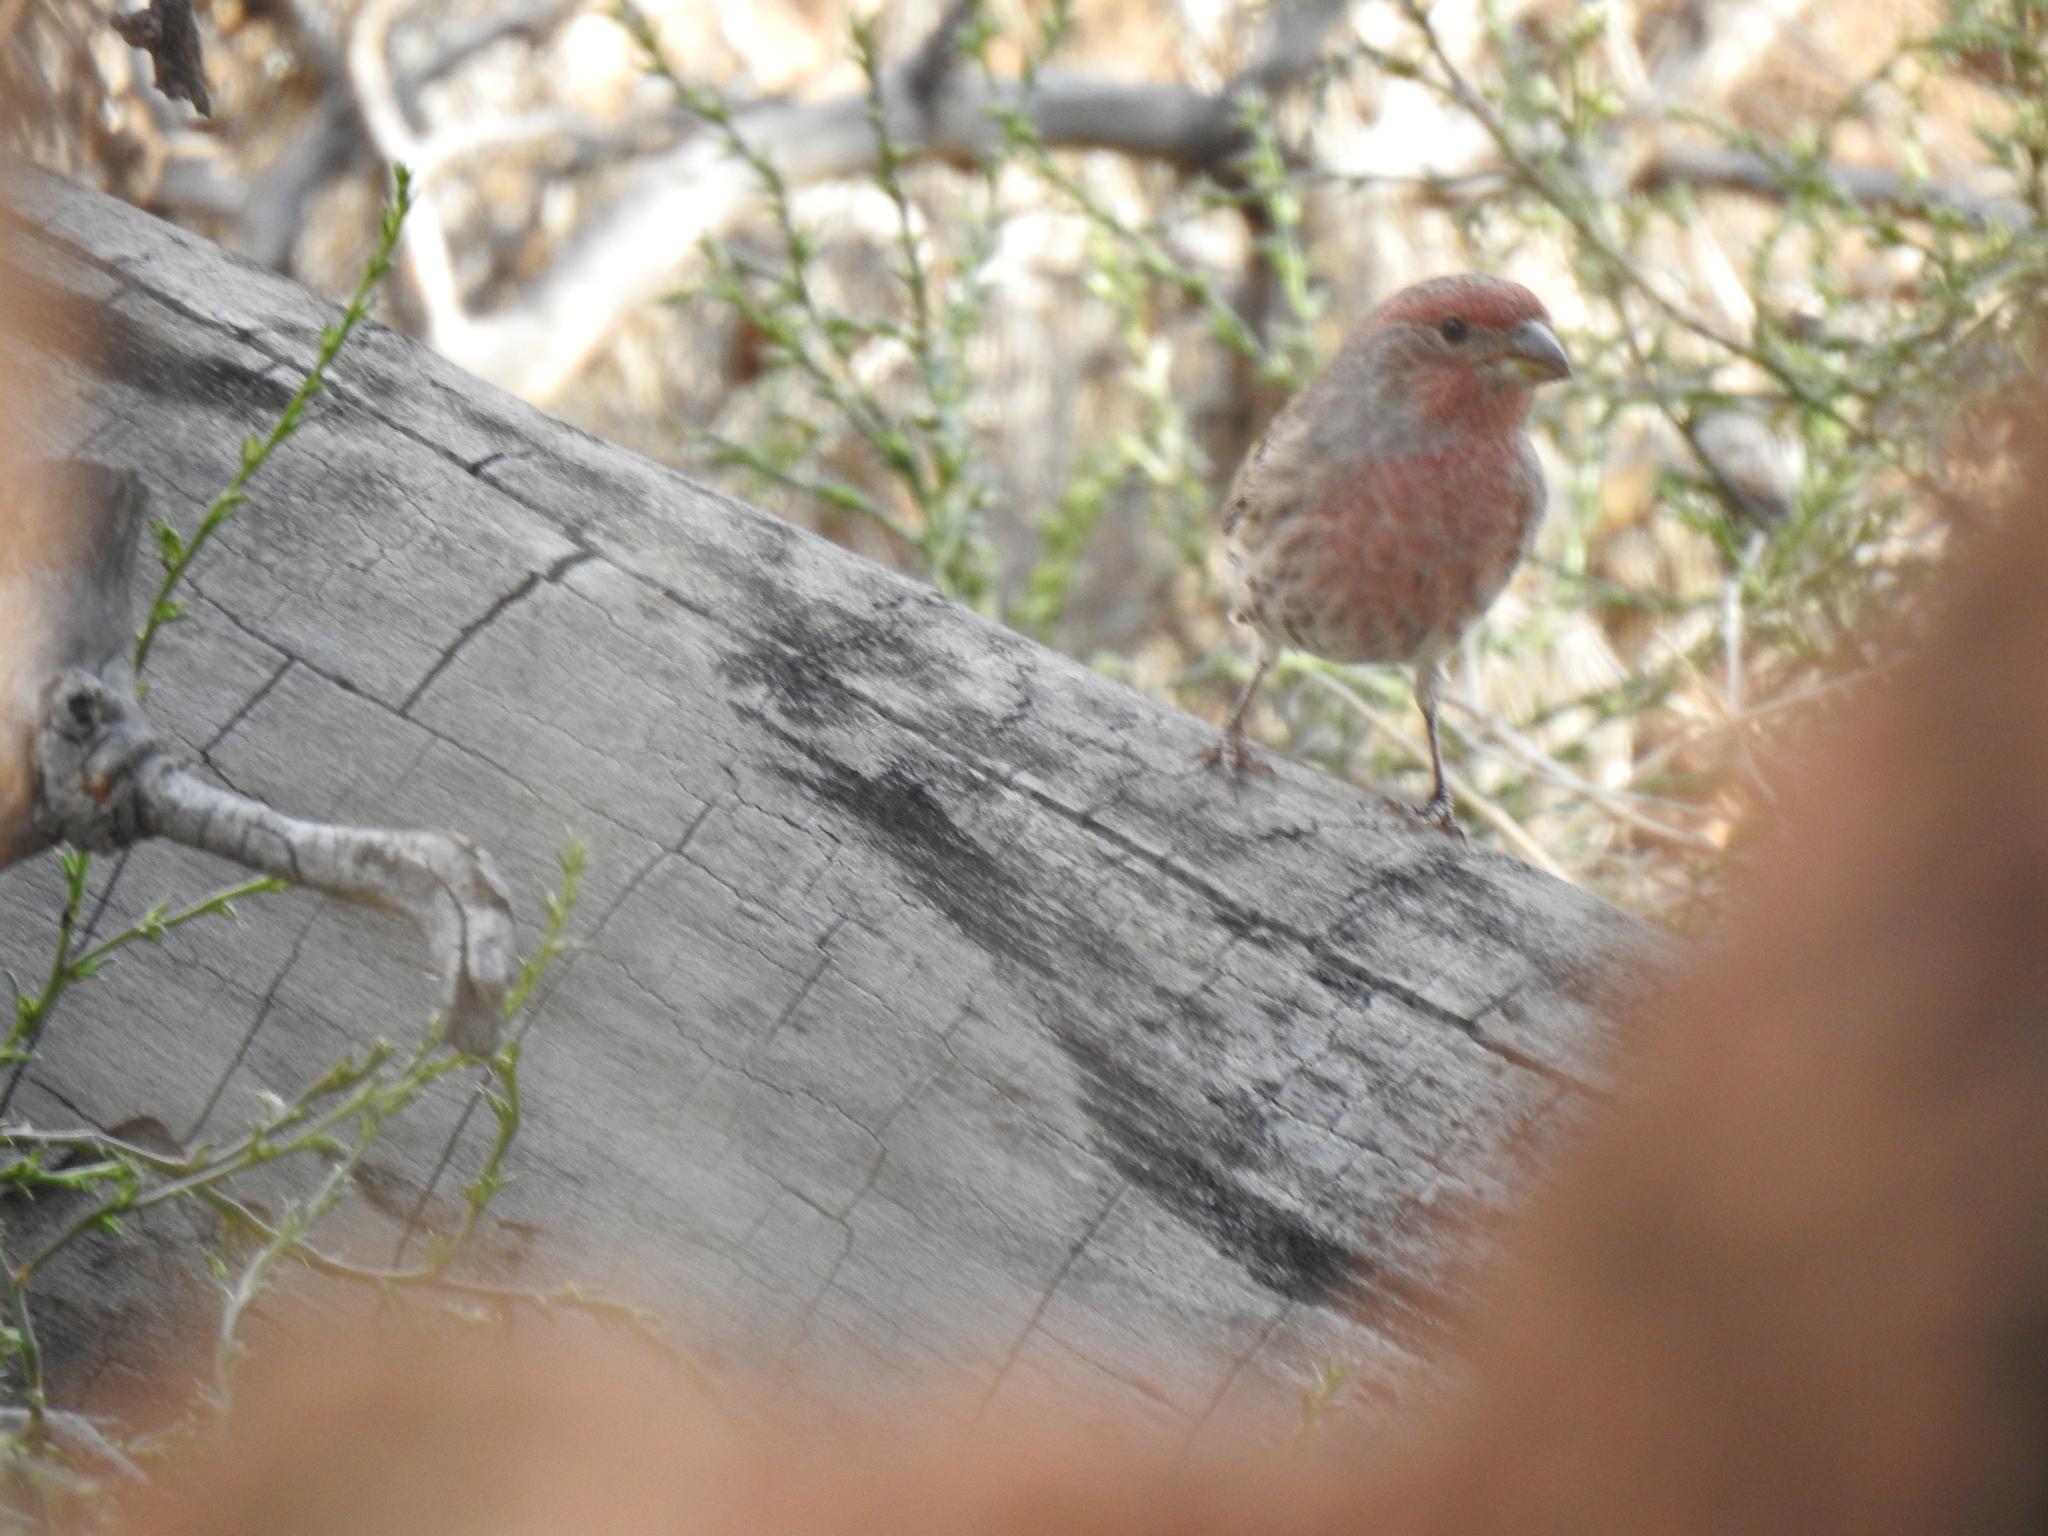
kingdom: Animalia
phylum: Chordata
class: Aves
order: Passeriformes
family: Fringillidae
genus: Haemorhous
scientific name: Haemorhous mexicanus
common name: House finch
